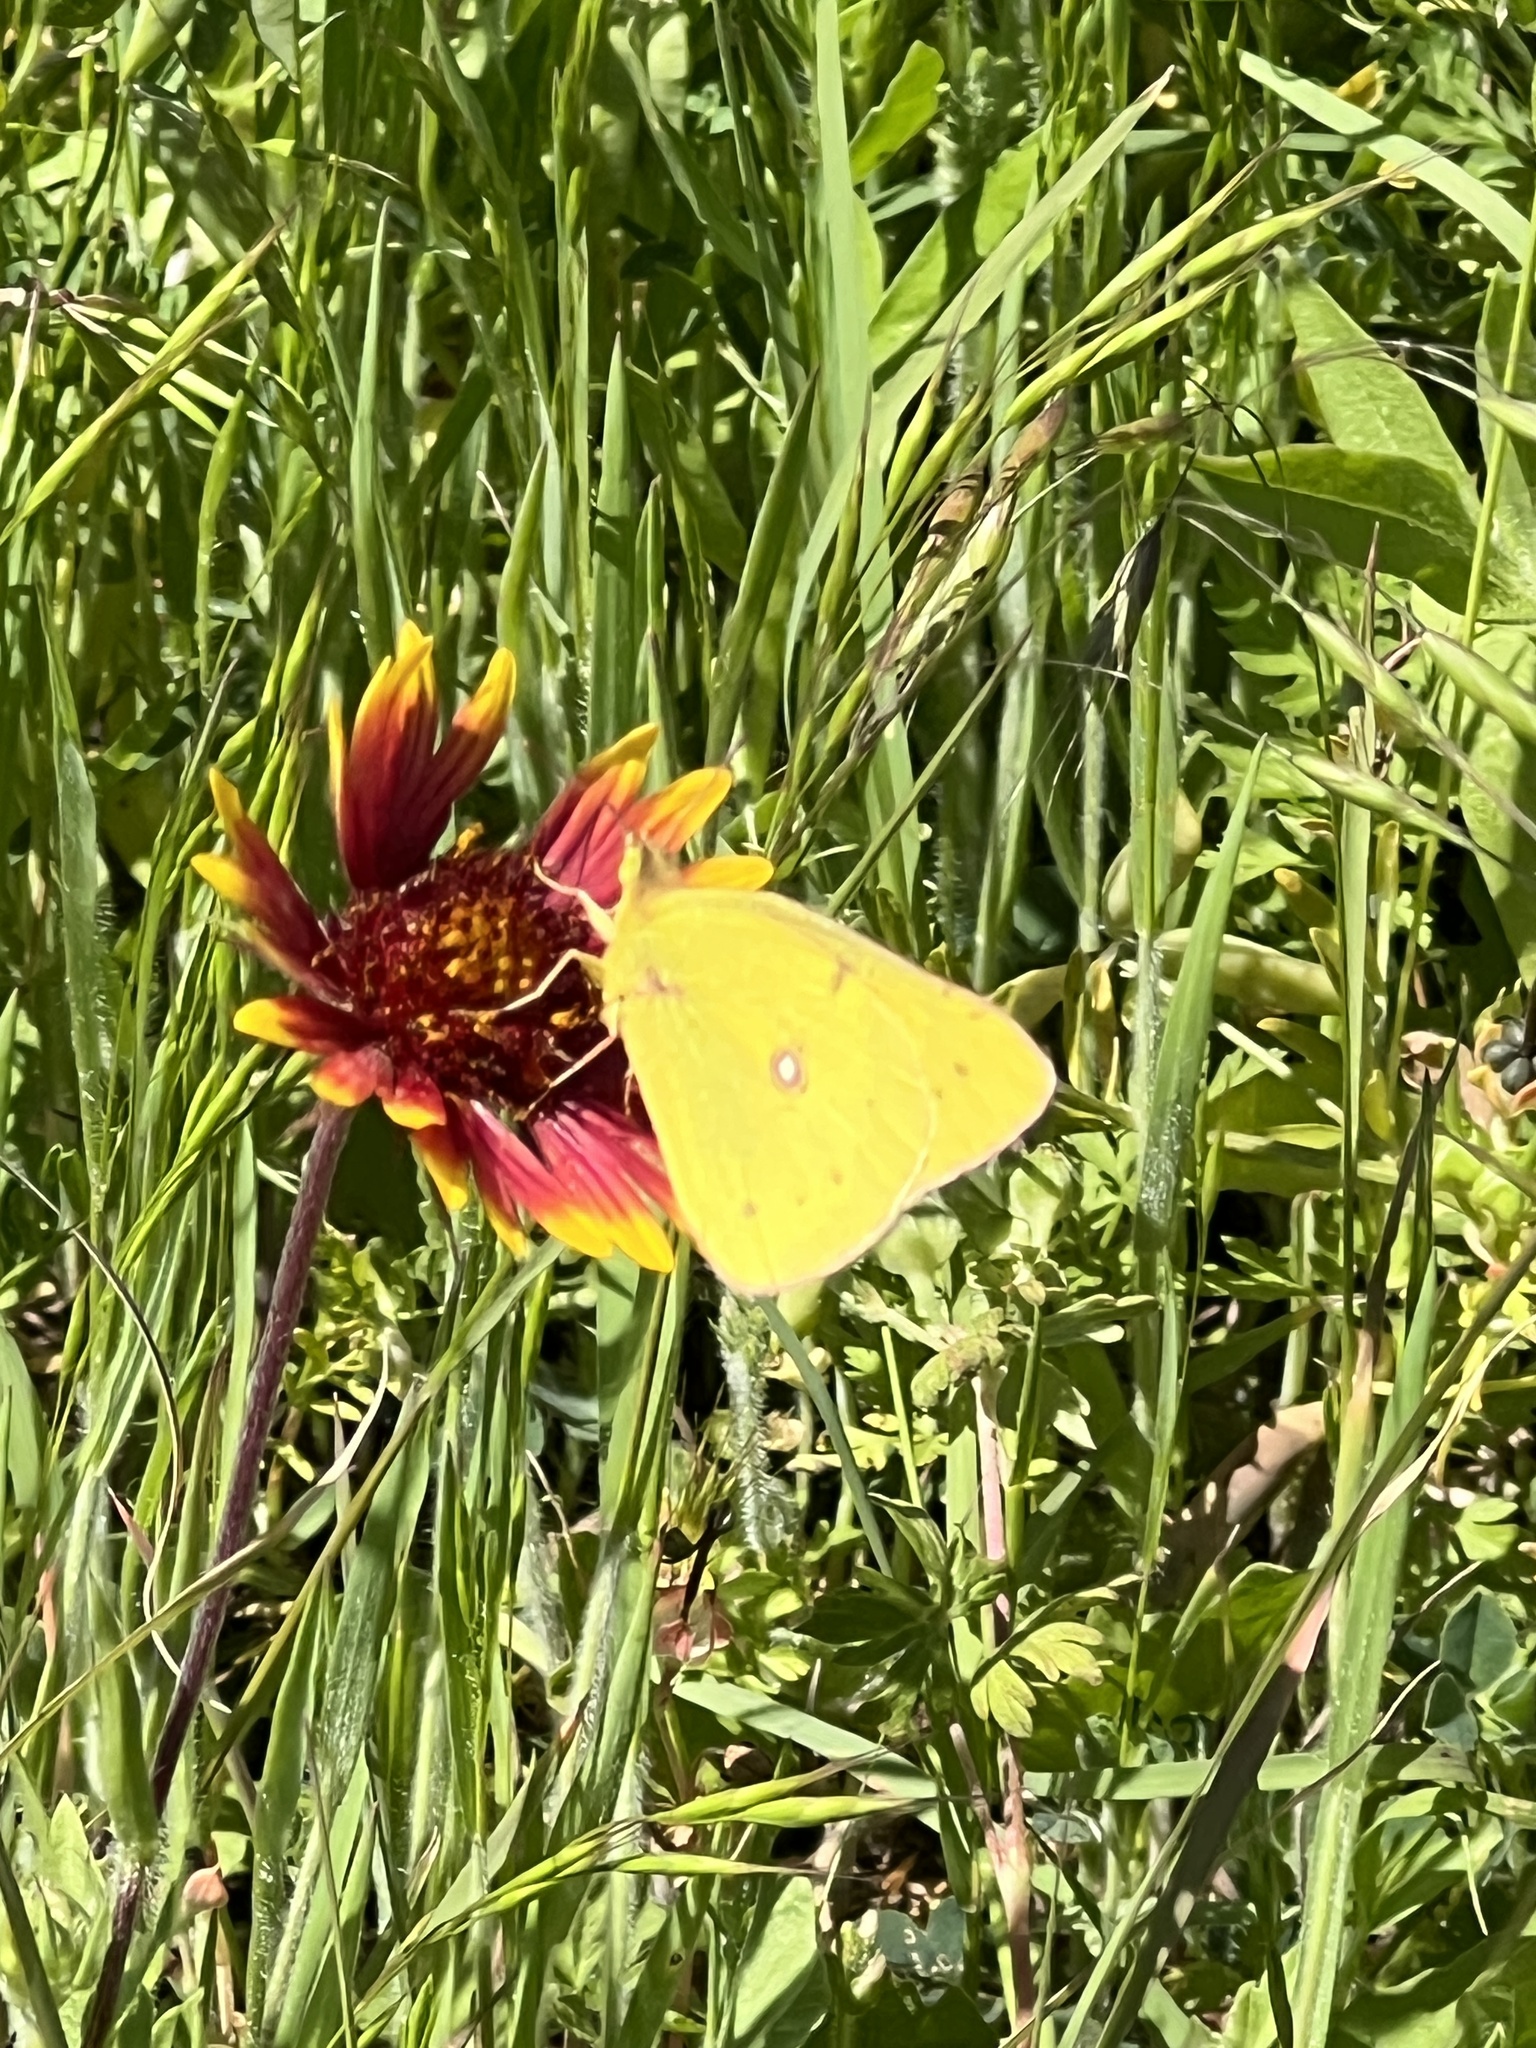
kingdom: Animalia
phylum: Arthropoda
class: Insecta
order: Lepidoptera
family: Pieridae
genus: Colias
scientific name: Colias eurytheme
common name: Alfalfa butterfly
